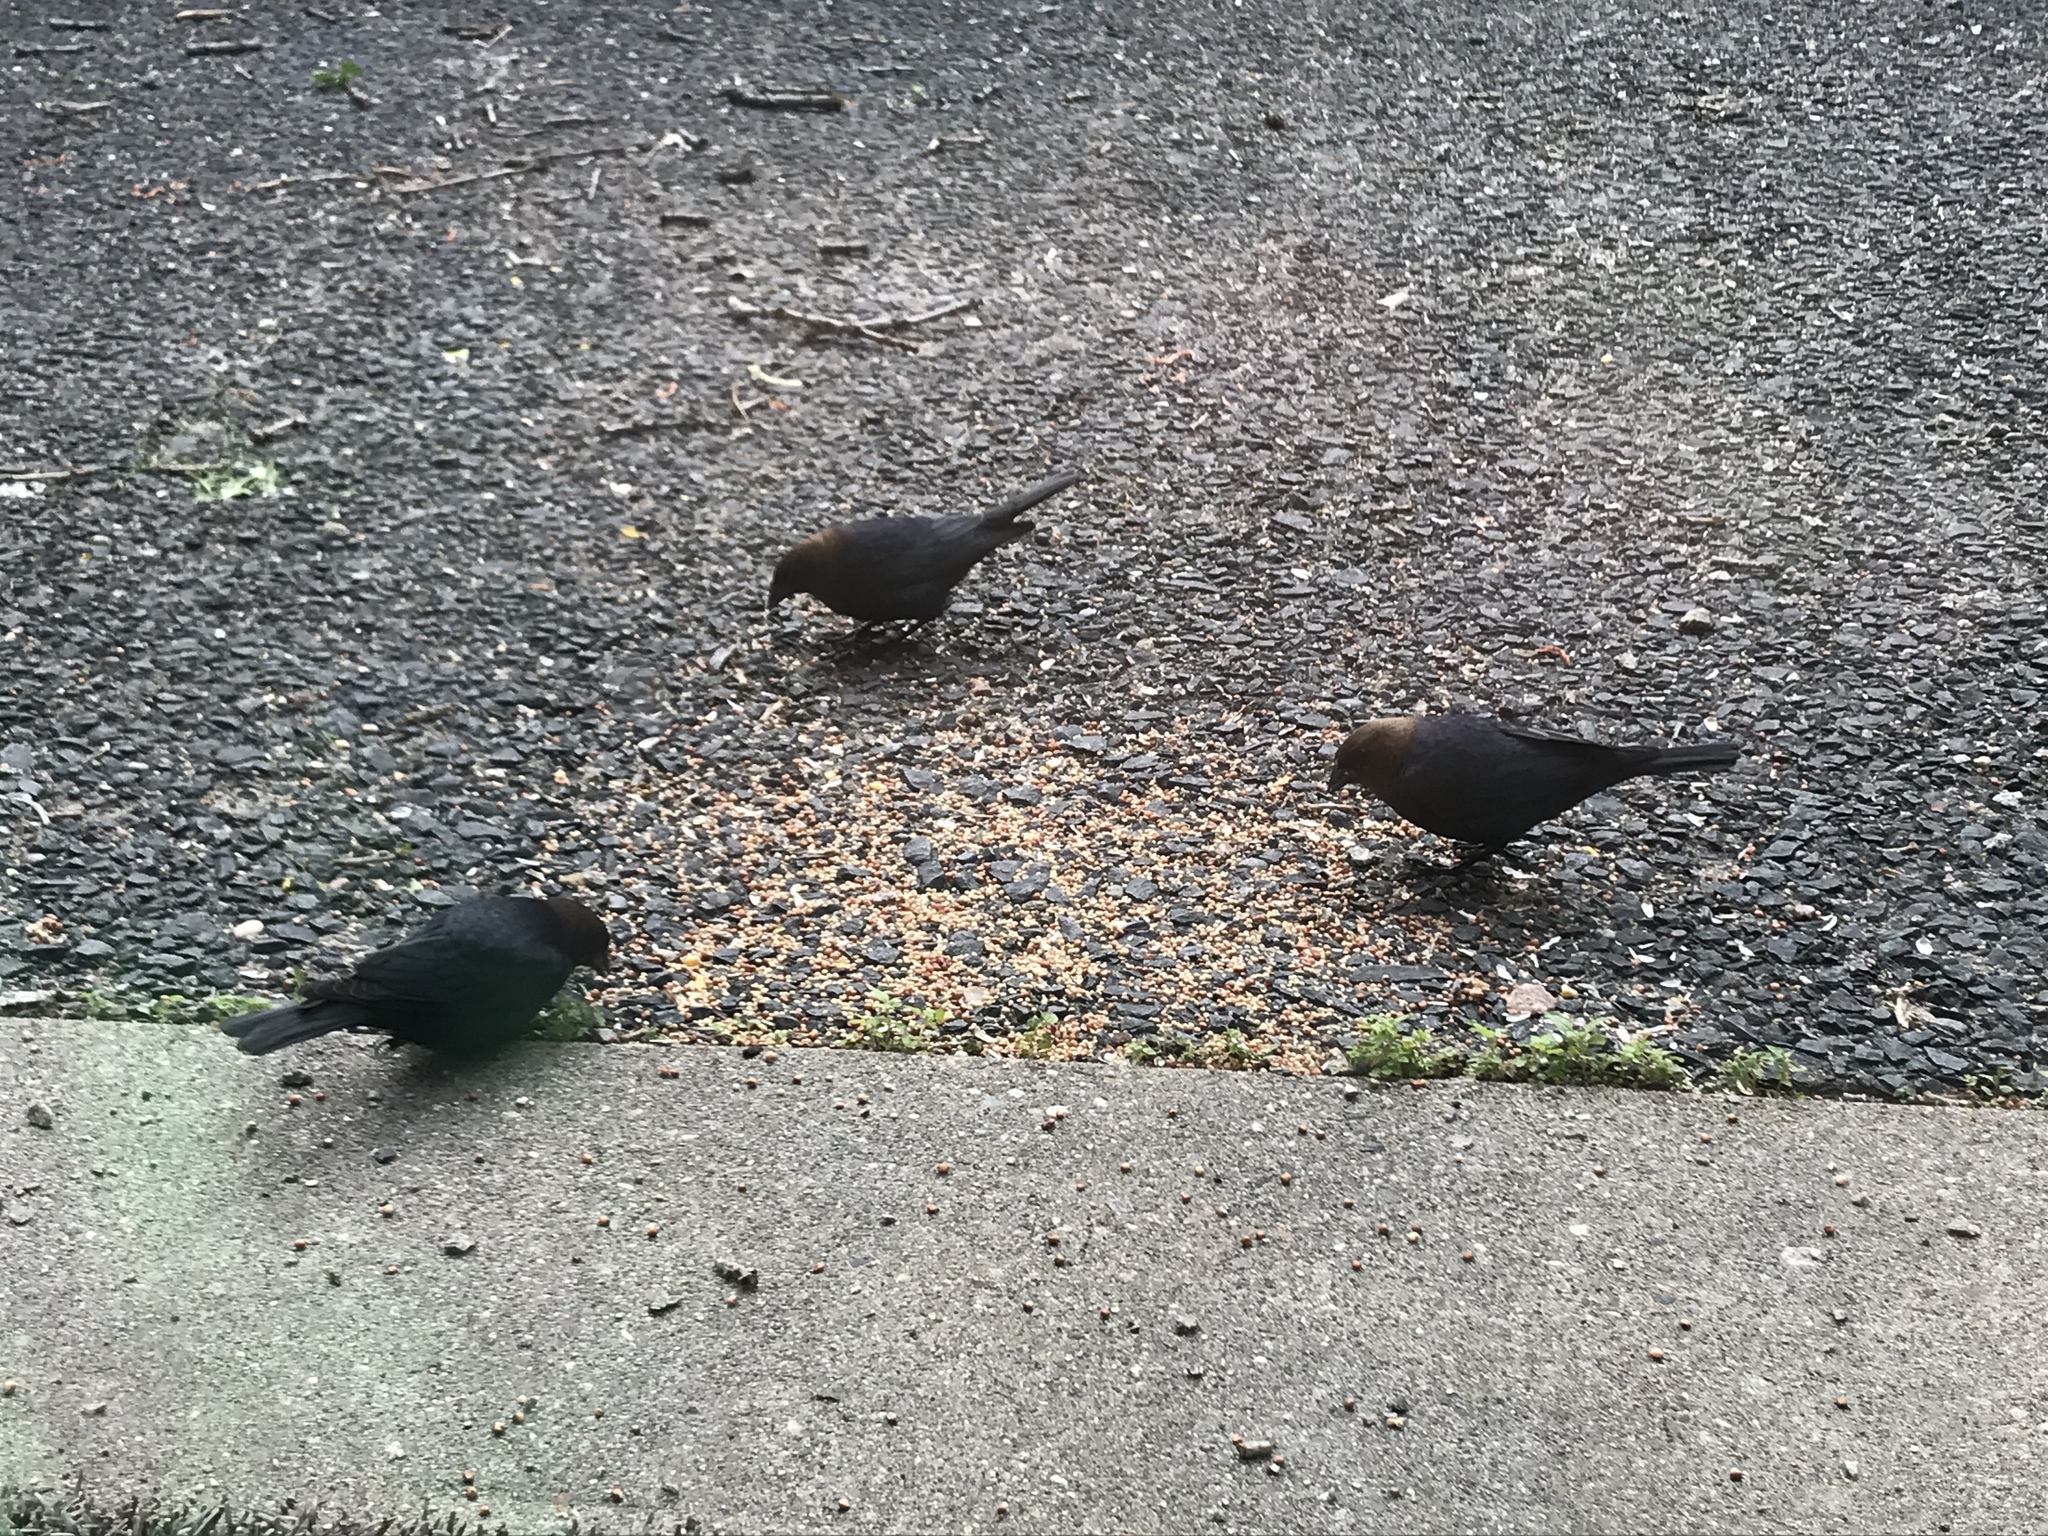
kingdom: Animalia
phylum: Chordata
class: Aves
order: Passeriformes
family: Icteridae
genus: Molothrus
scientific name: Molothrus ater
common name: Brown-headed cowbird
